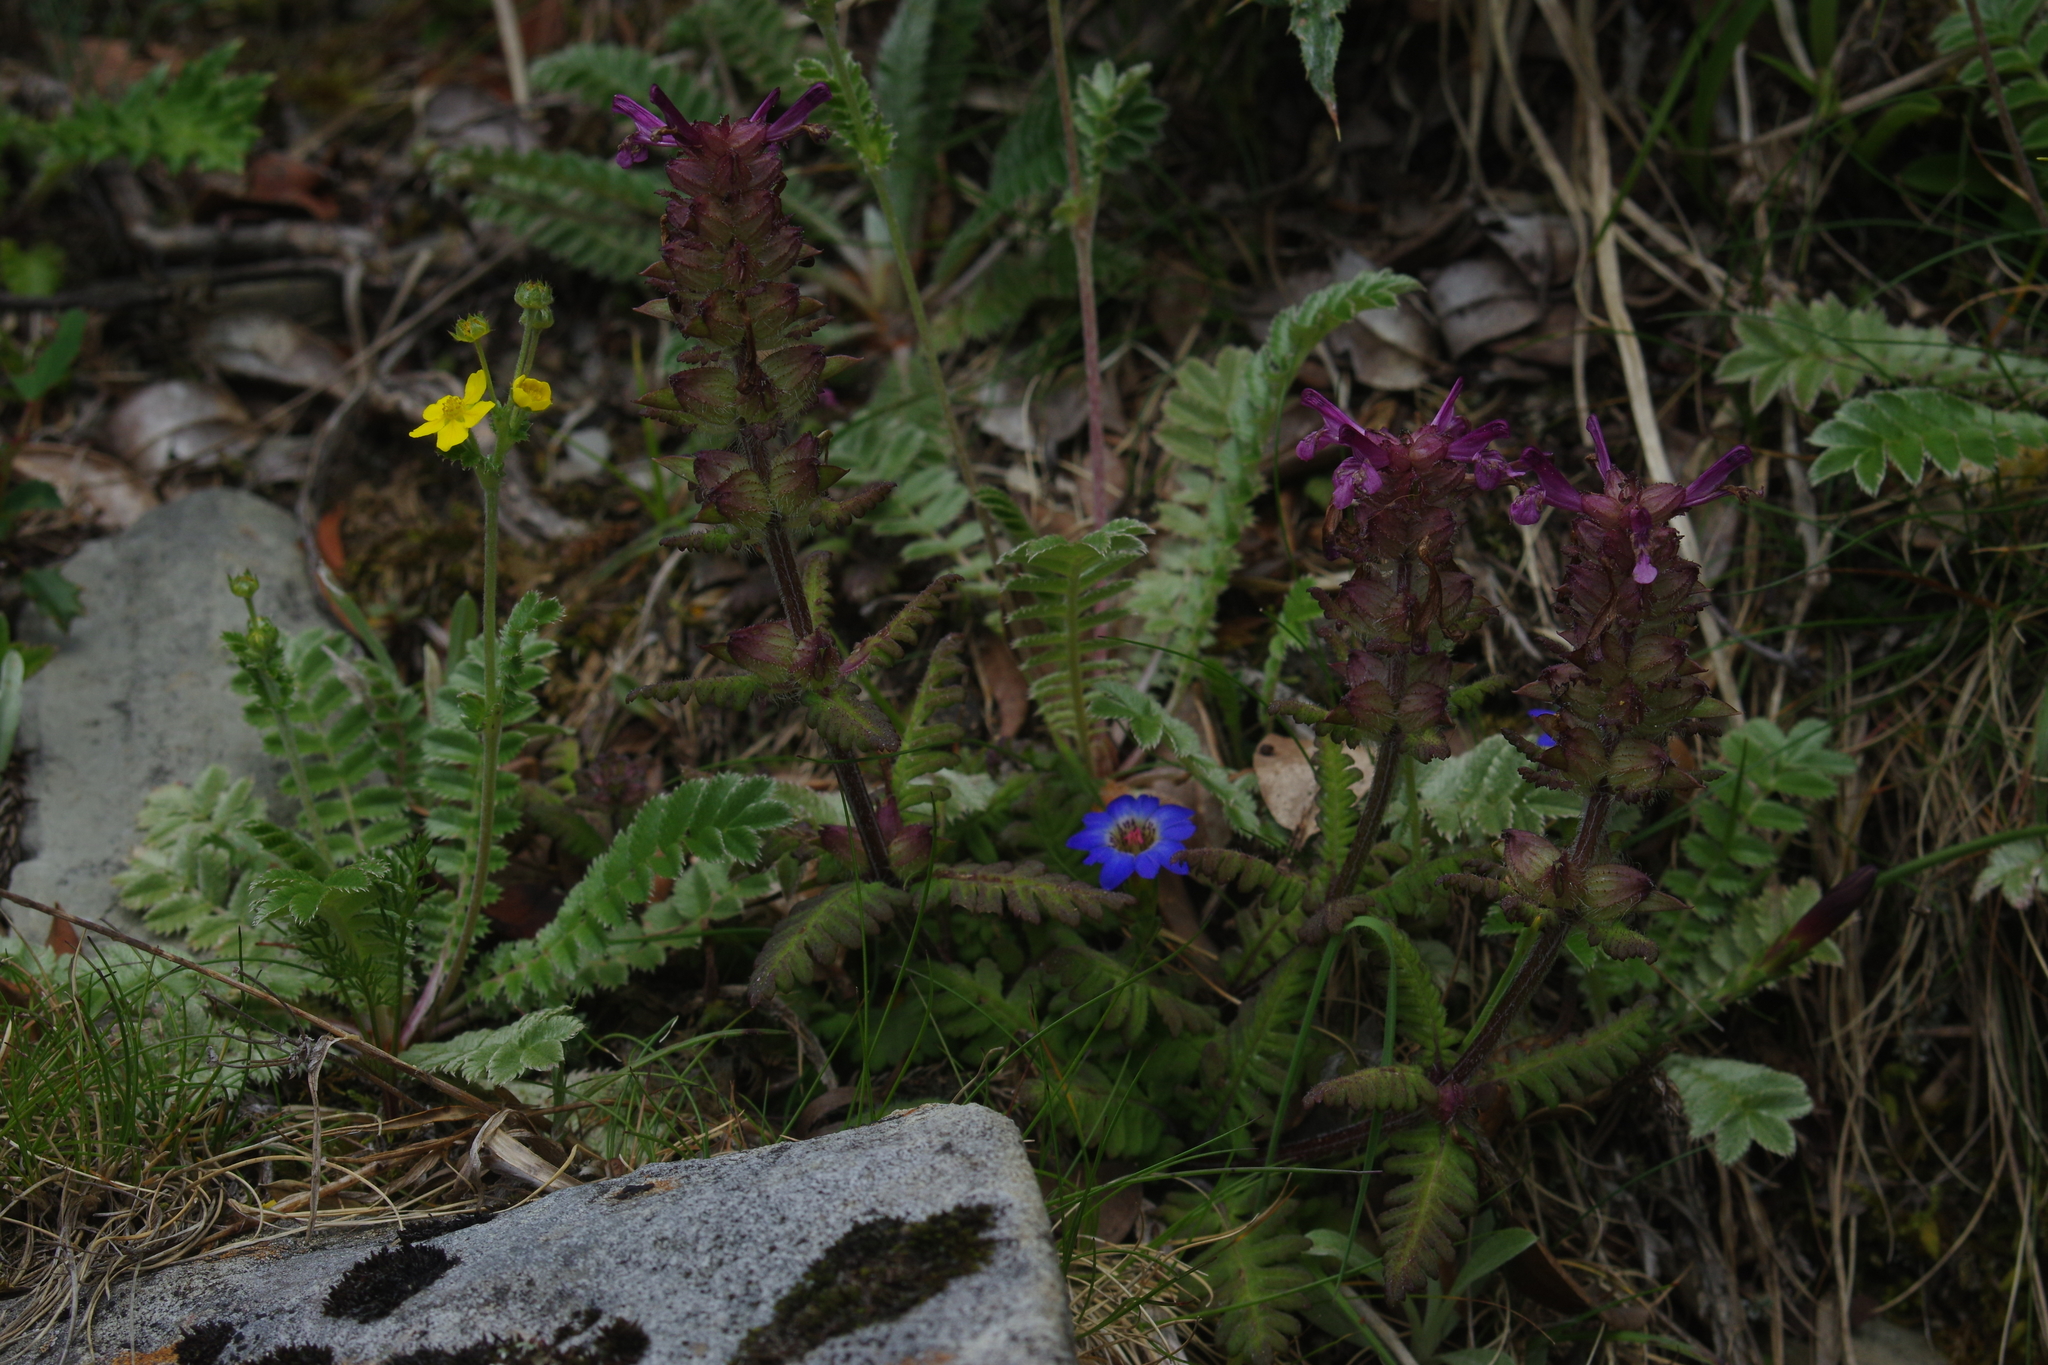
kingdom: Plantae
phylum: Tracheophyta
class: Magnoliopsida
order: Lamiales
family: Orobanchaceae
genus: Pedicularis
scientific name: Pedicularis refracta
